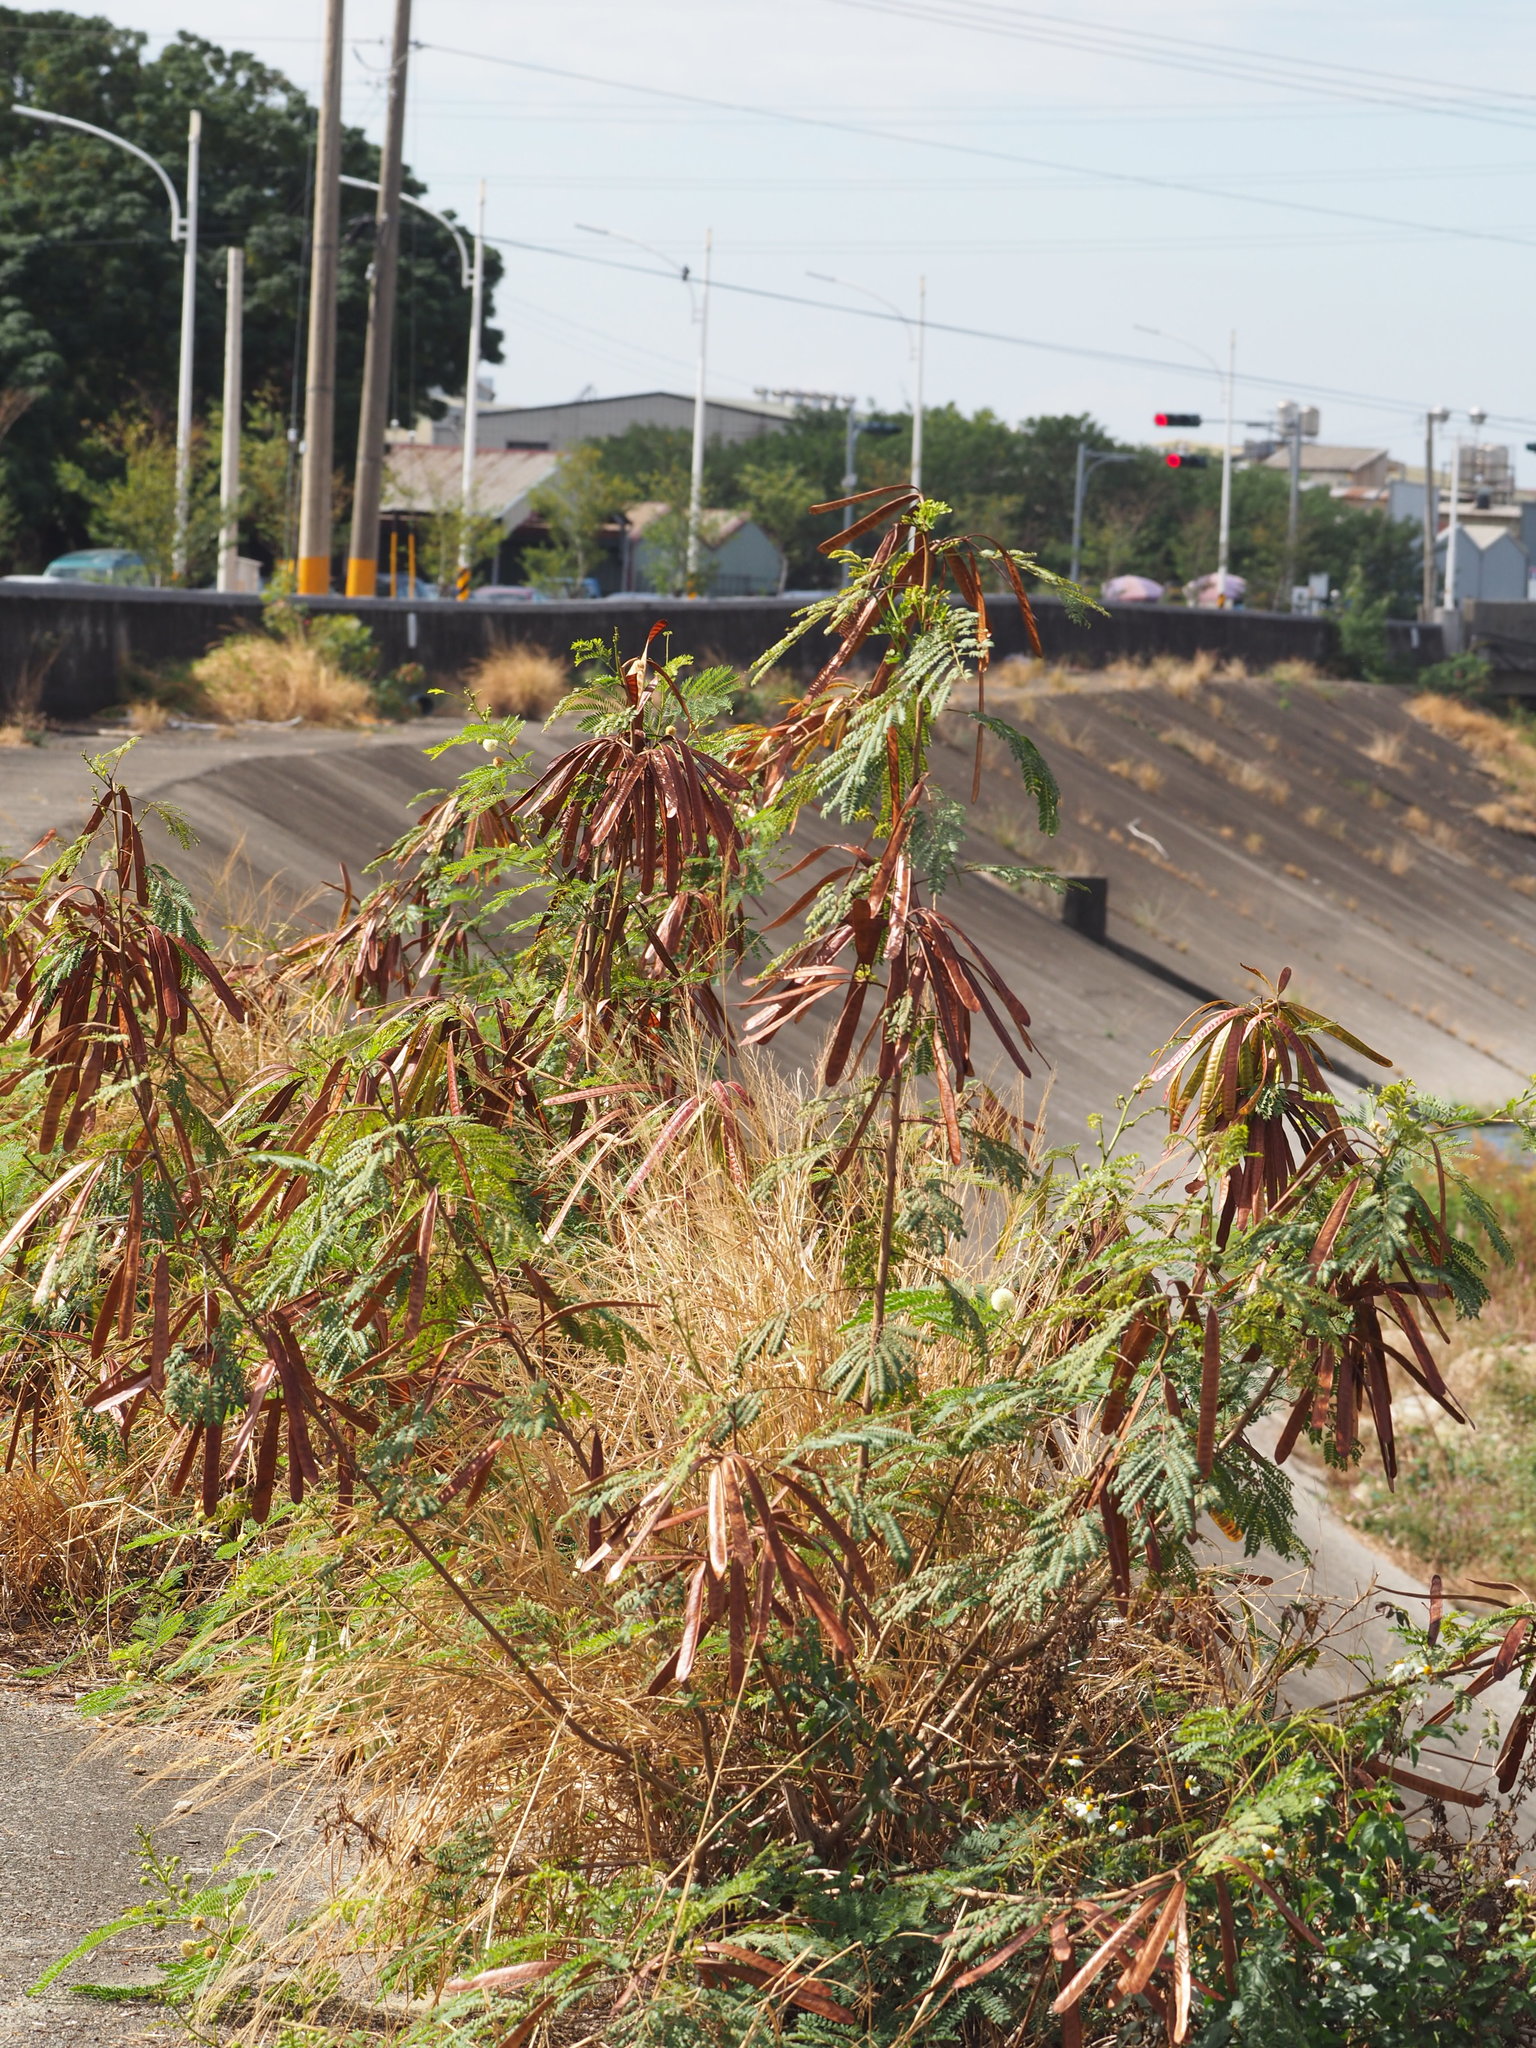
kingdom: Plantae
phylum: Tracheophyta
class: Magnoliopsida
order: Fabales
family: Fabaceae
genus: Leucaena
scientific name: Leucaena leucocephala
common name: White leadtree
